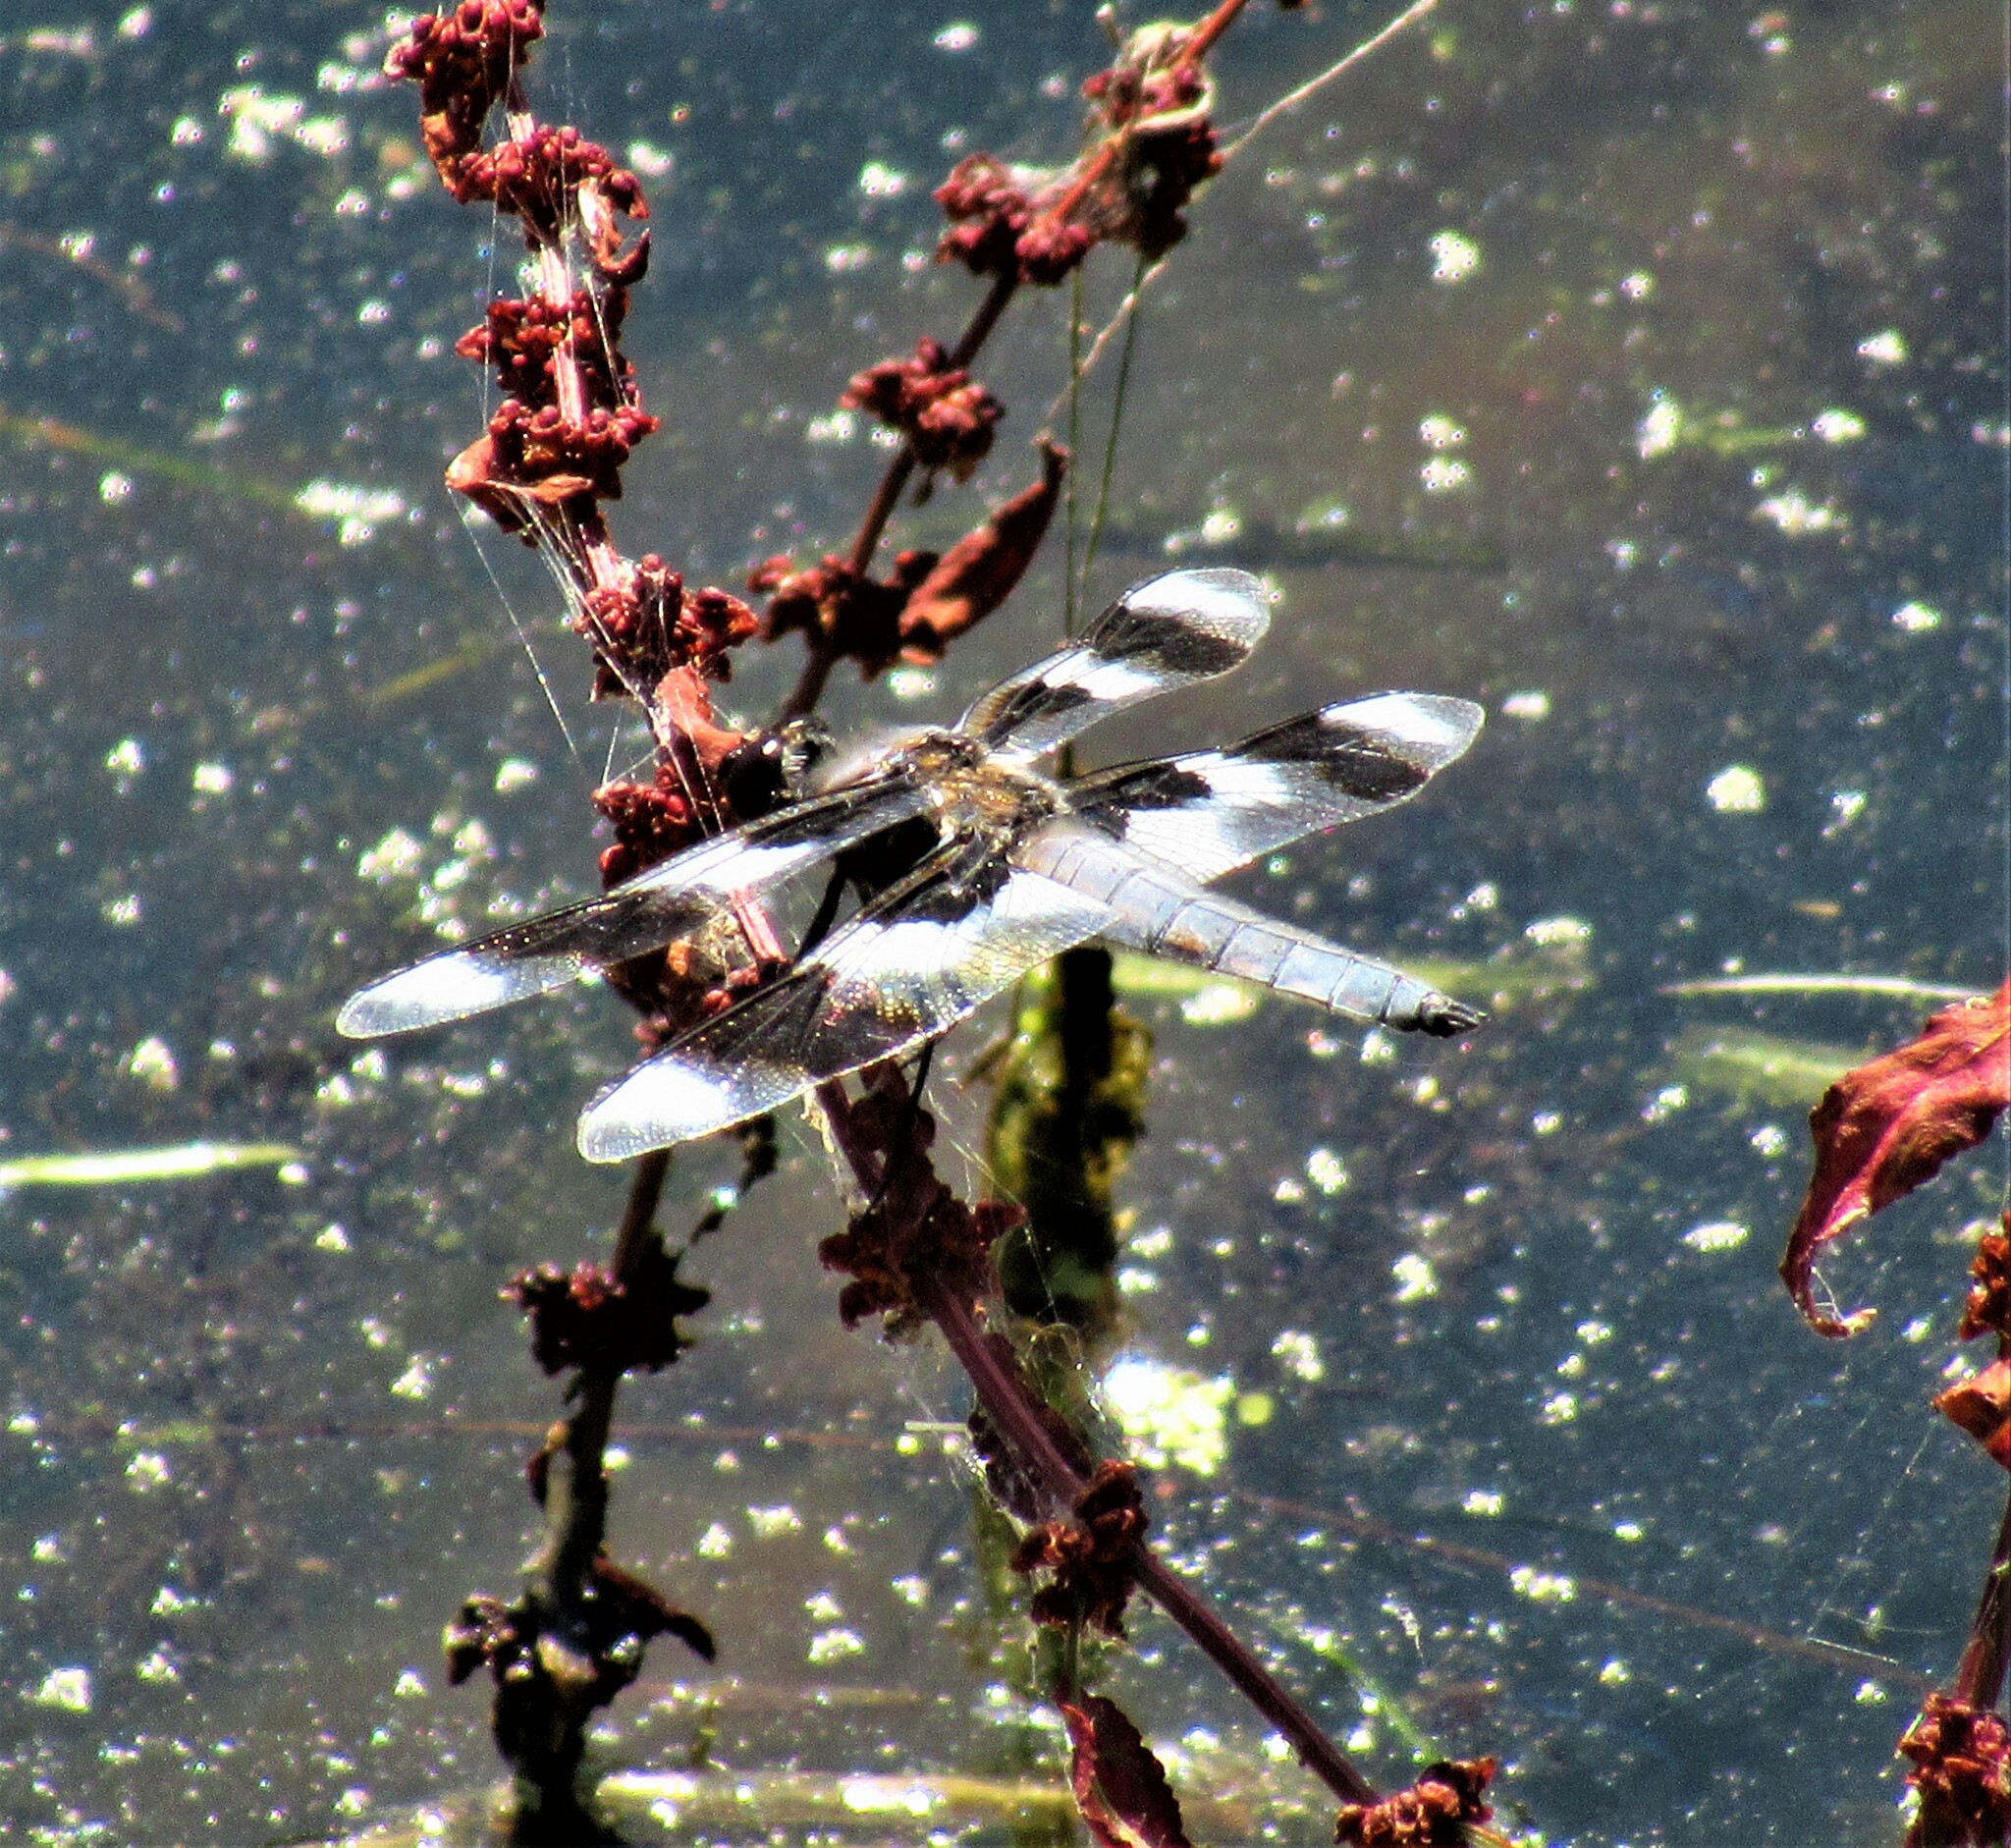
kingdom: Animalia
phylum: Arthropoda
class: Insecta
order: Odonata
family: Libellulidae
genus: Libellula
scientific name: Libellula forensis
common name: Eight-spotted skimmer
